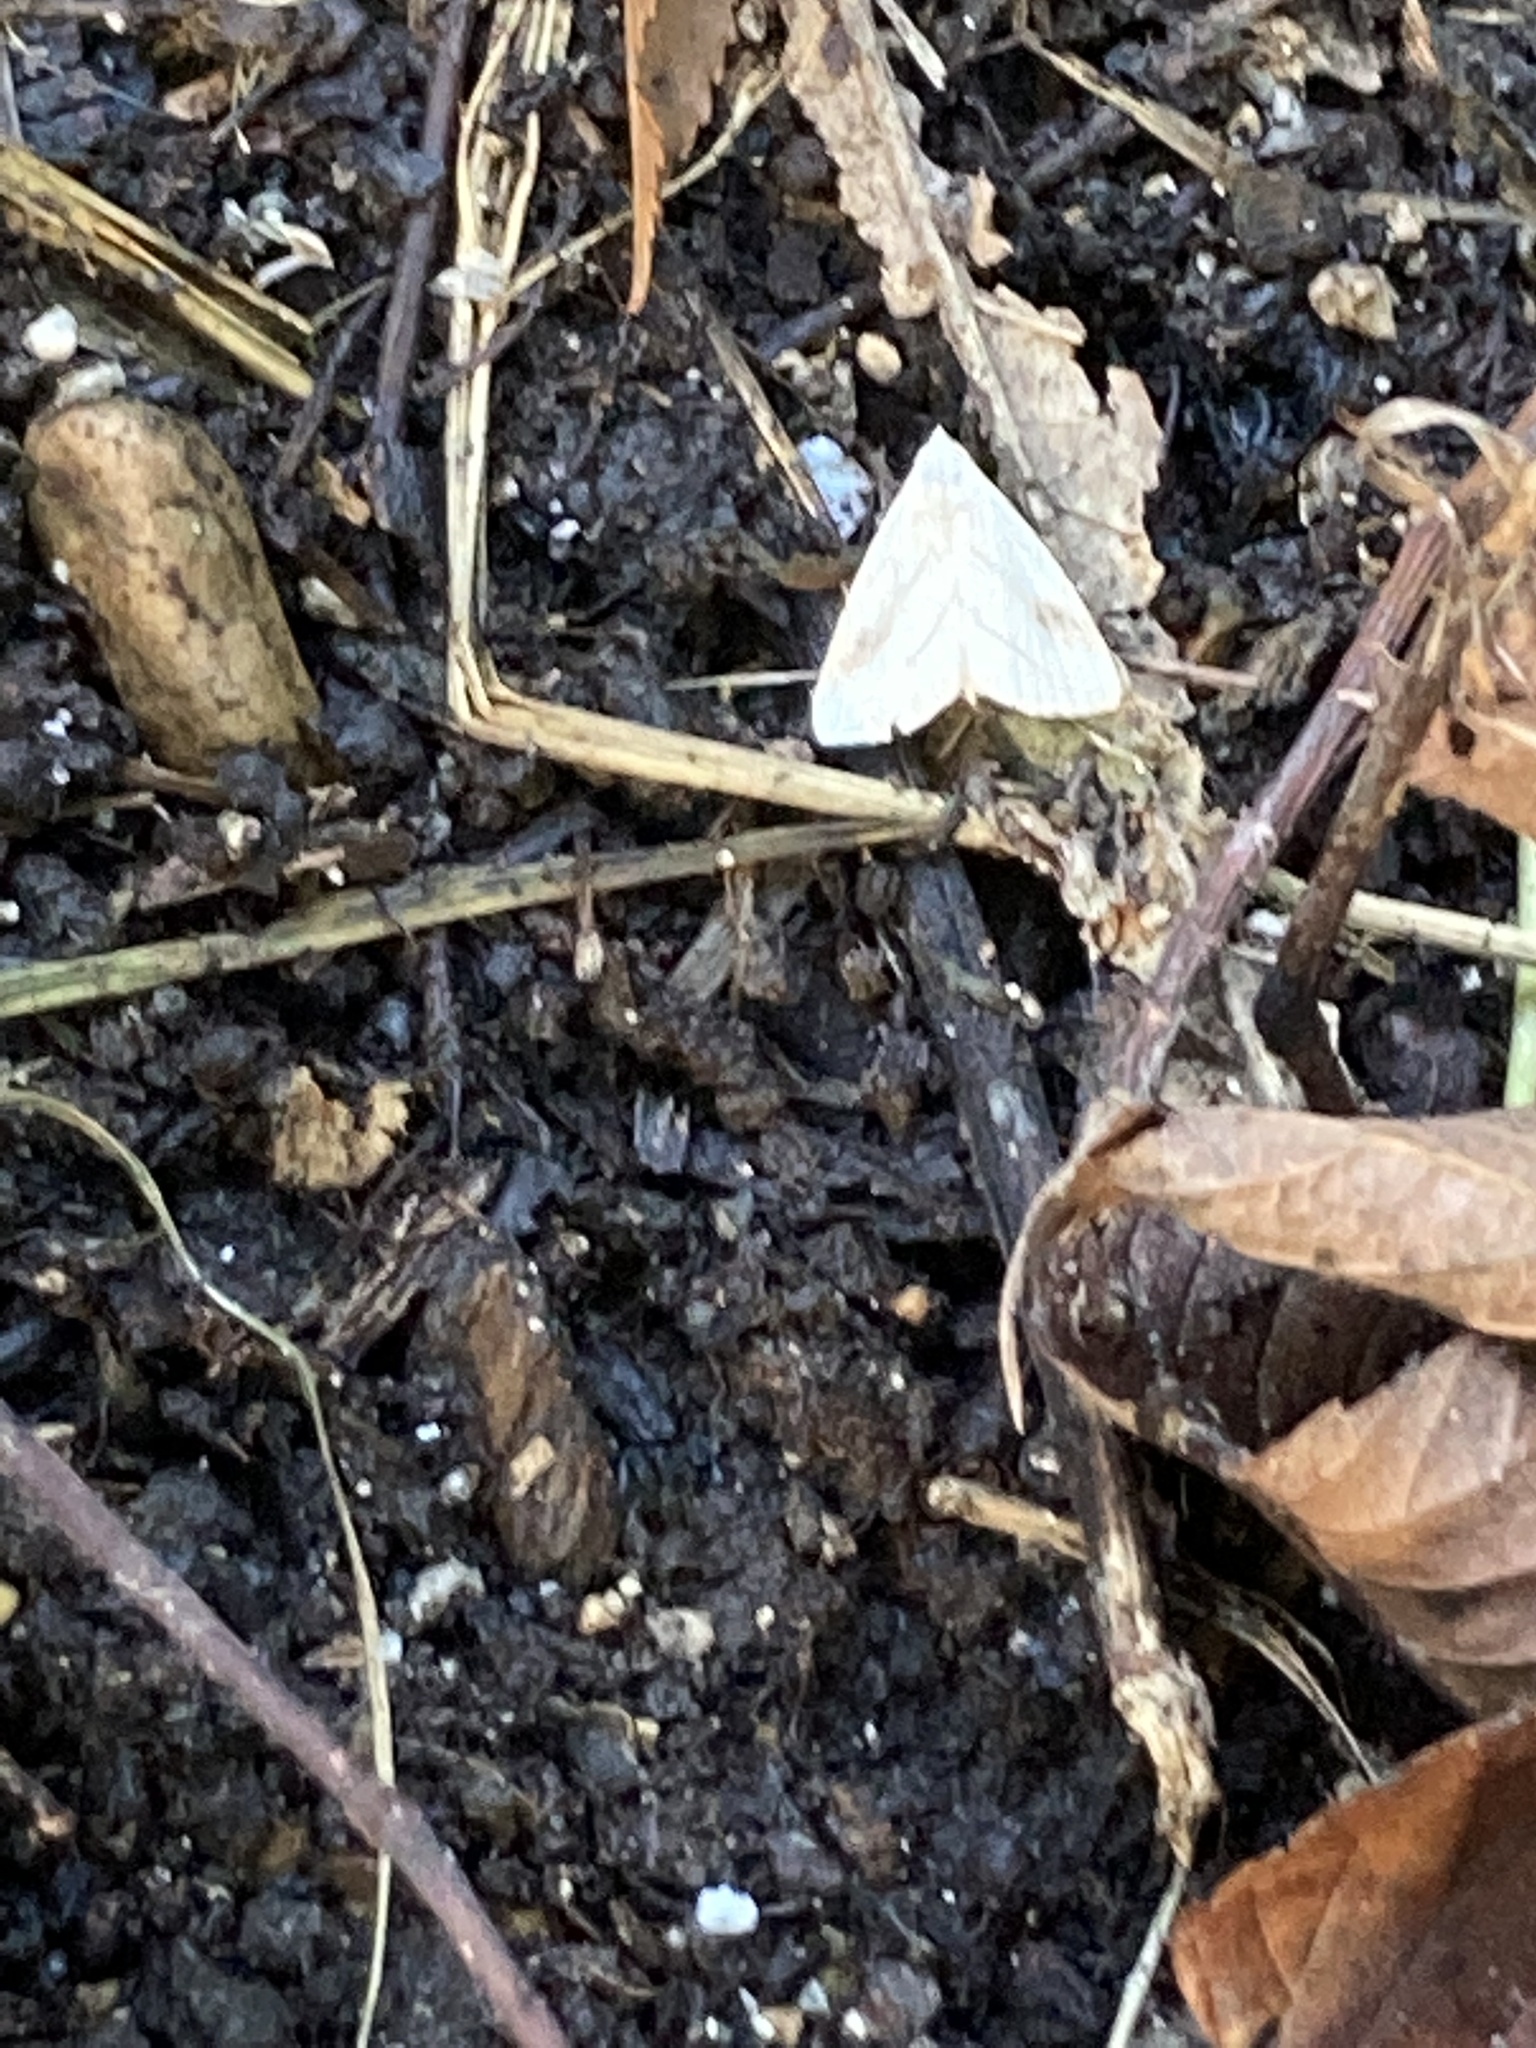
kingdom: Animalia
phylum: Arthropoda
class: Insecta
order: Lepidoptera
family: Erebidae
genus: Rivula
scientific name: Rivula propinqualis
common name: Spotted grass moth
